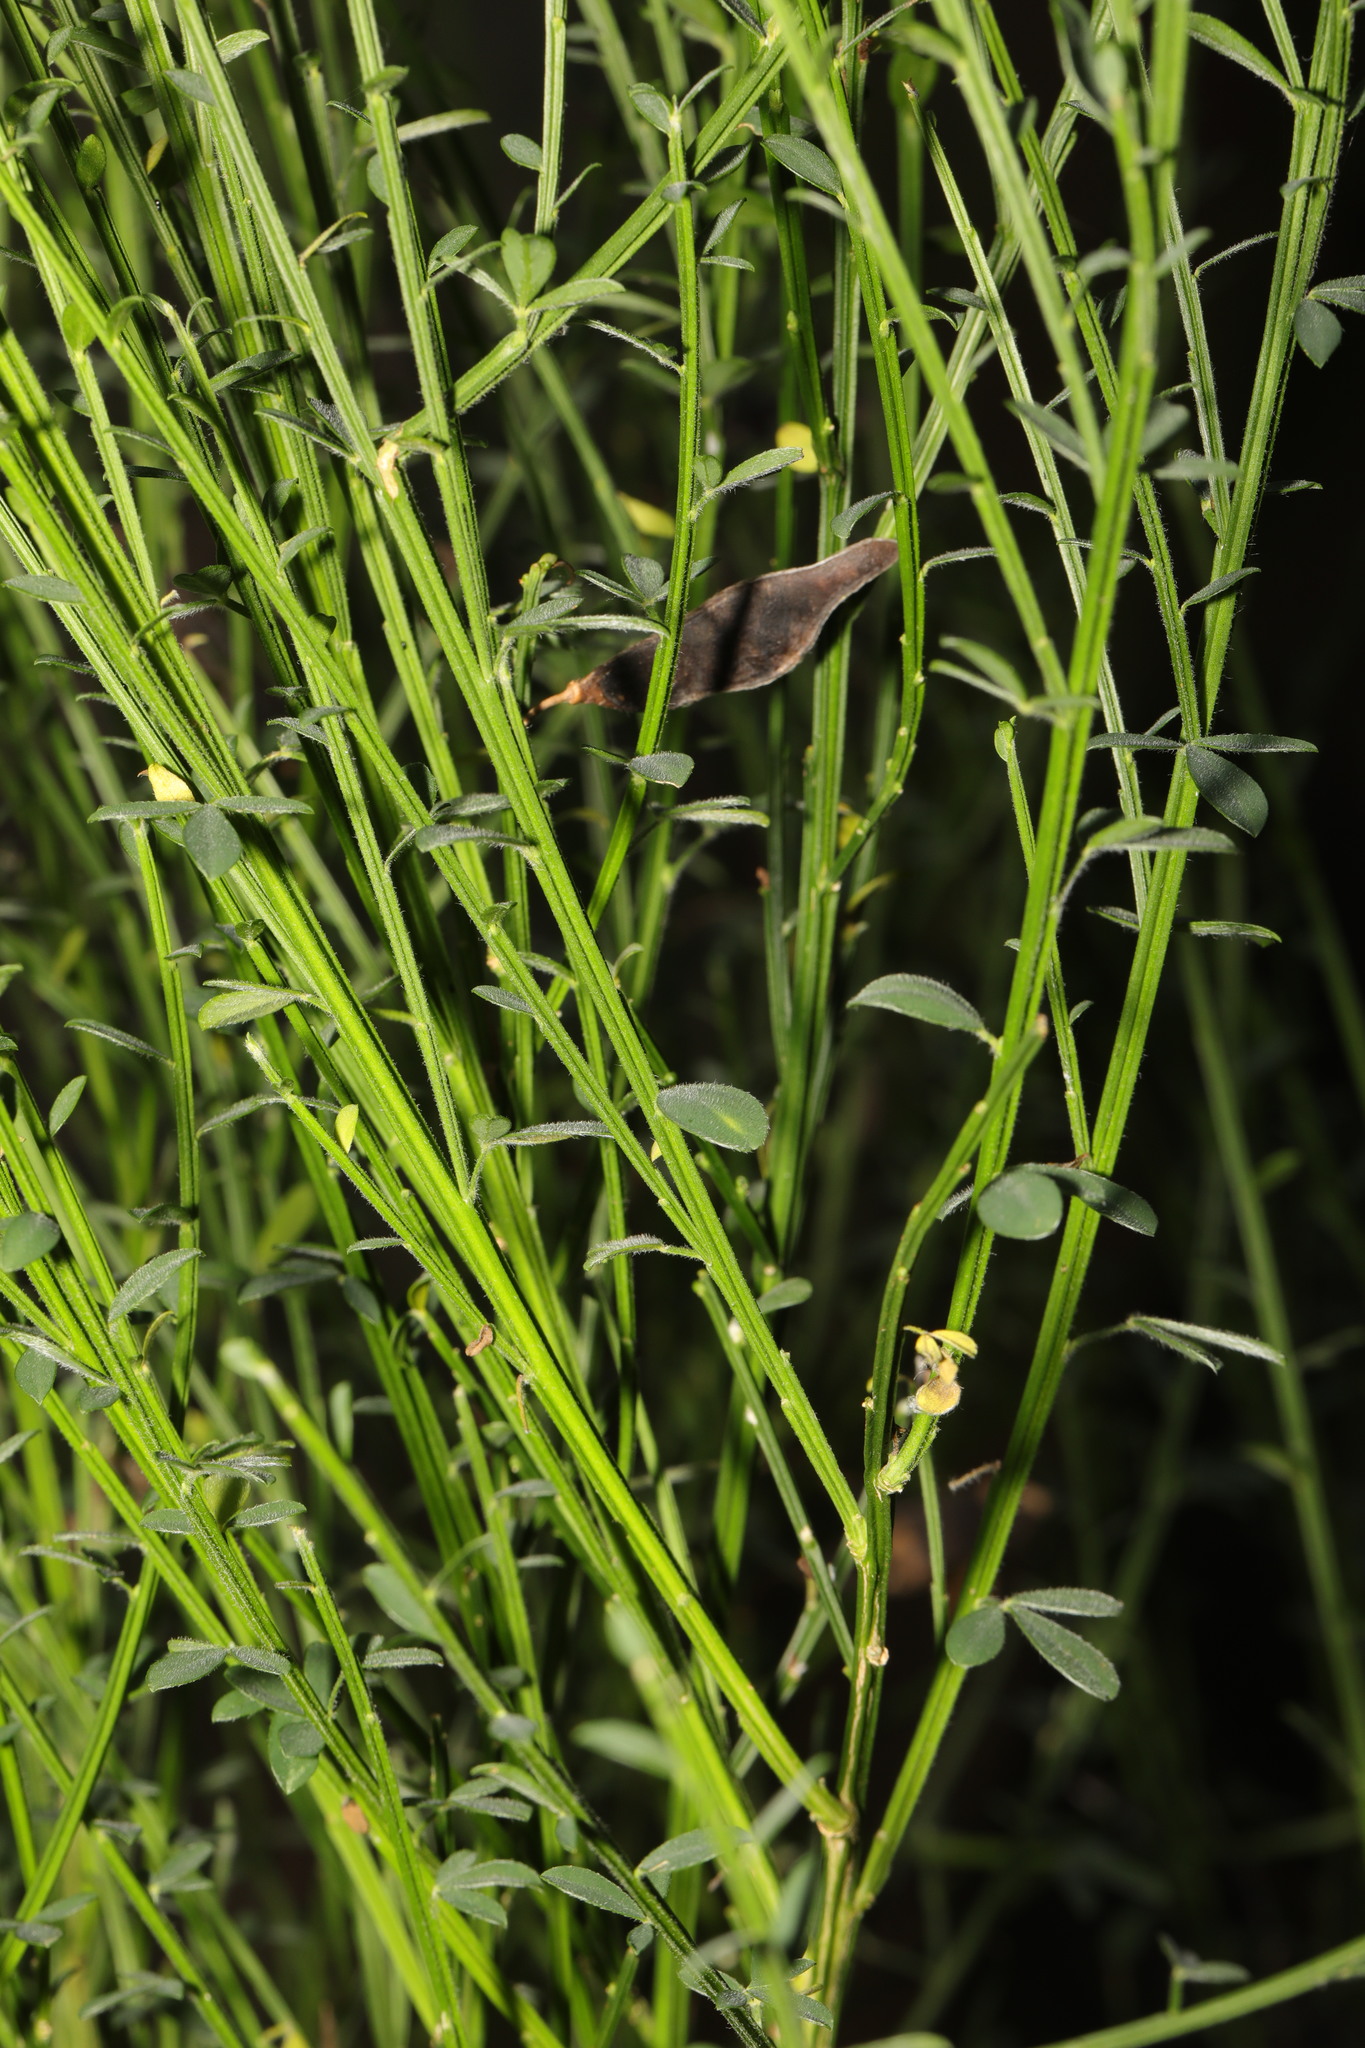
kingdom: Plantae
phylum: Tracheophyta
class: Magnoliopsida
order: Fabales
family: Fabaceae
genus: Cytisus
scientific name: Cytisus scoparius
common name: Scotch broom
